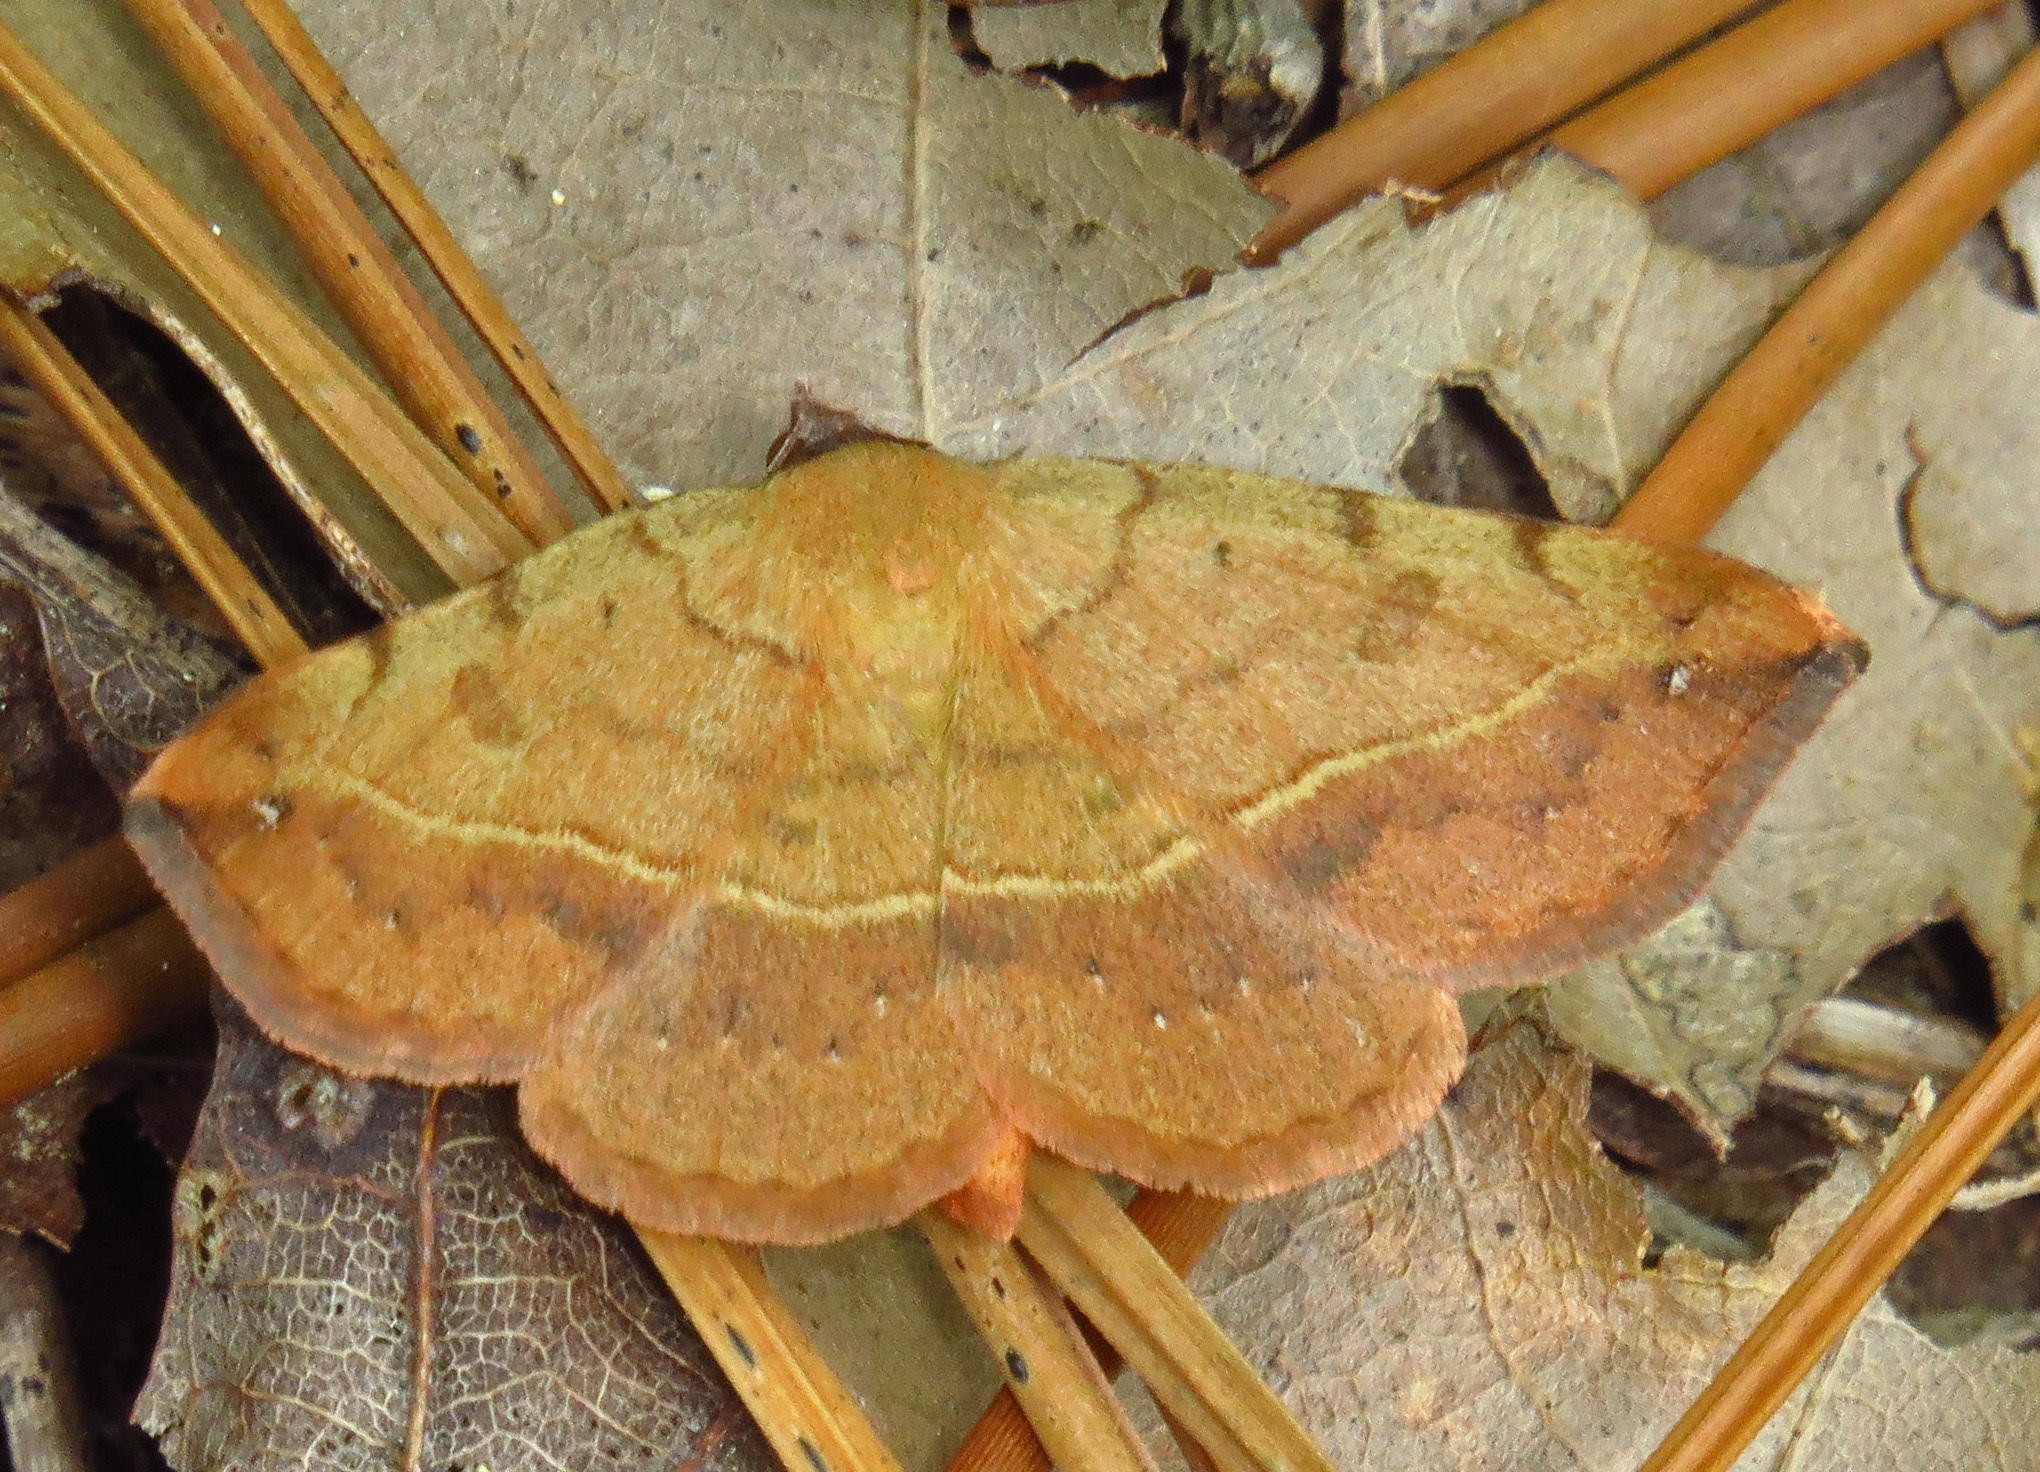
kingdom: Animalia
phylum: Arthropoda
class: Insecta
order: Lepidoptera
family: Erebidae
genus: Hemeroplanis
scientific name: Hemeroplanis scopulepes
